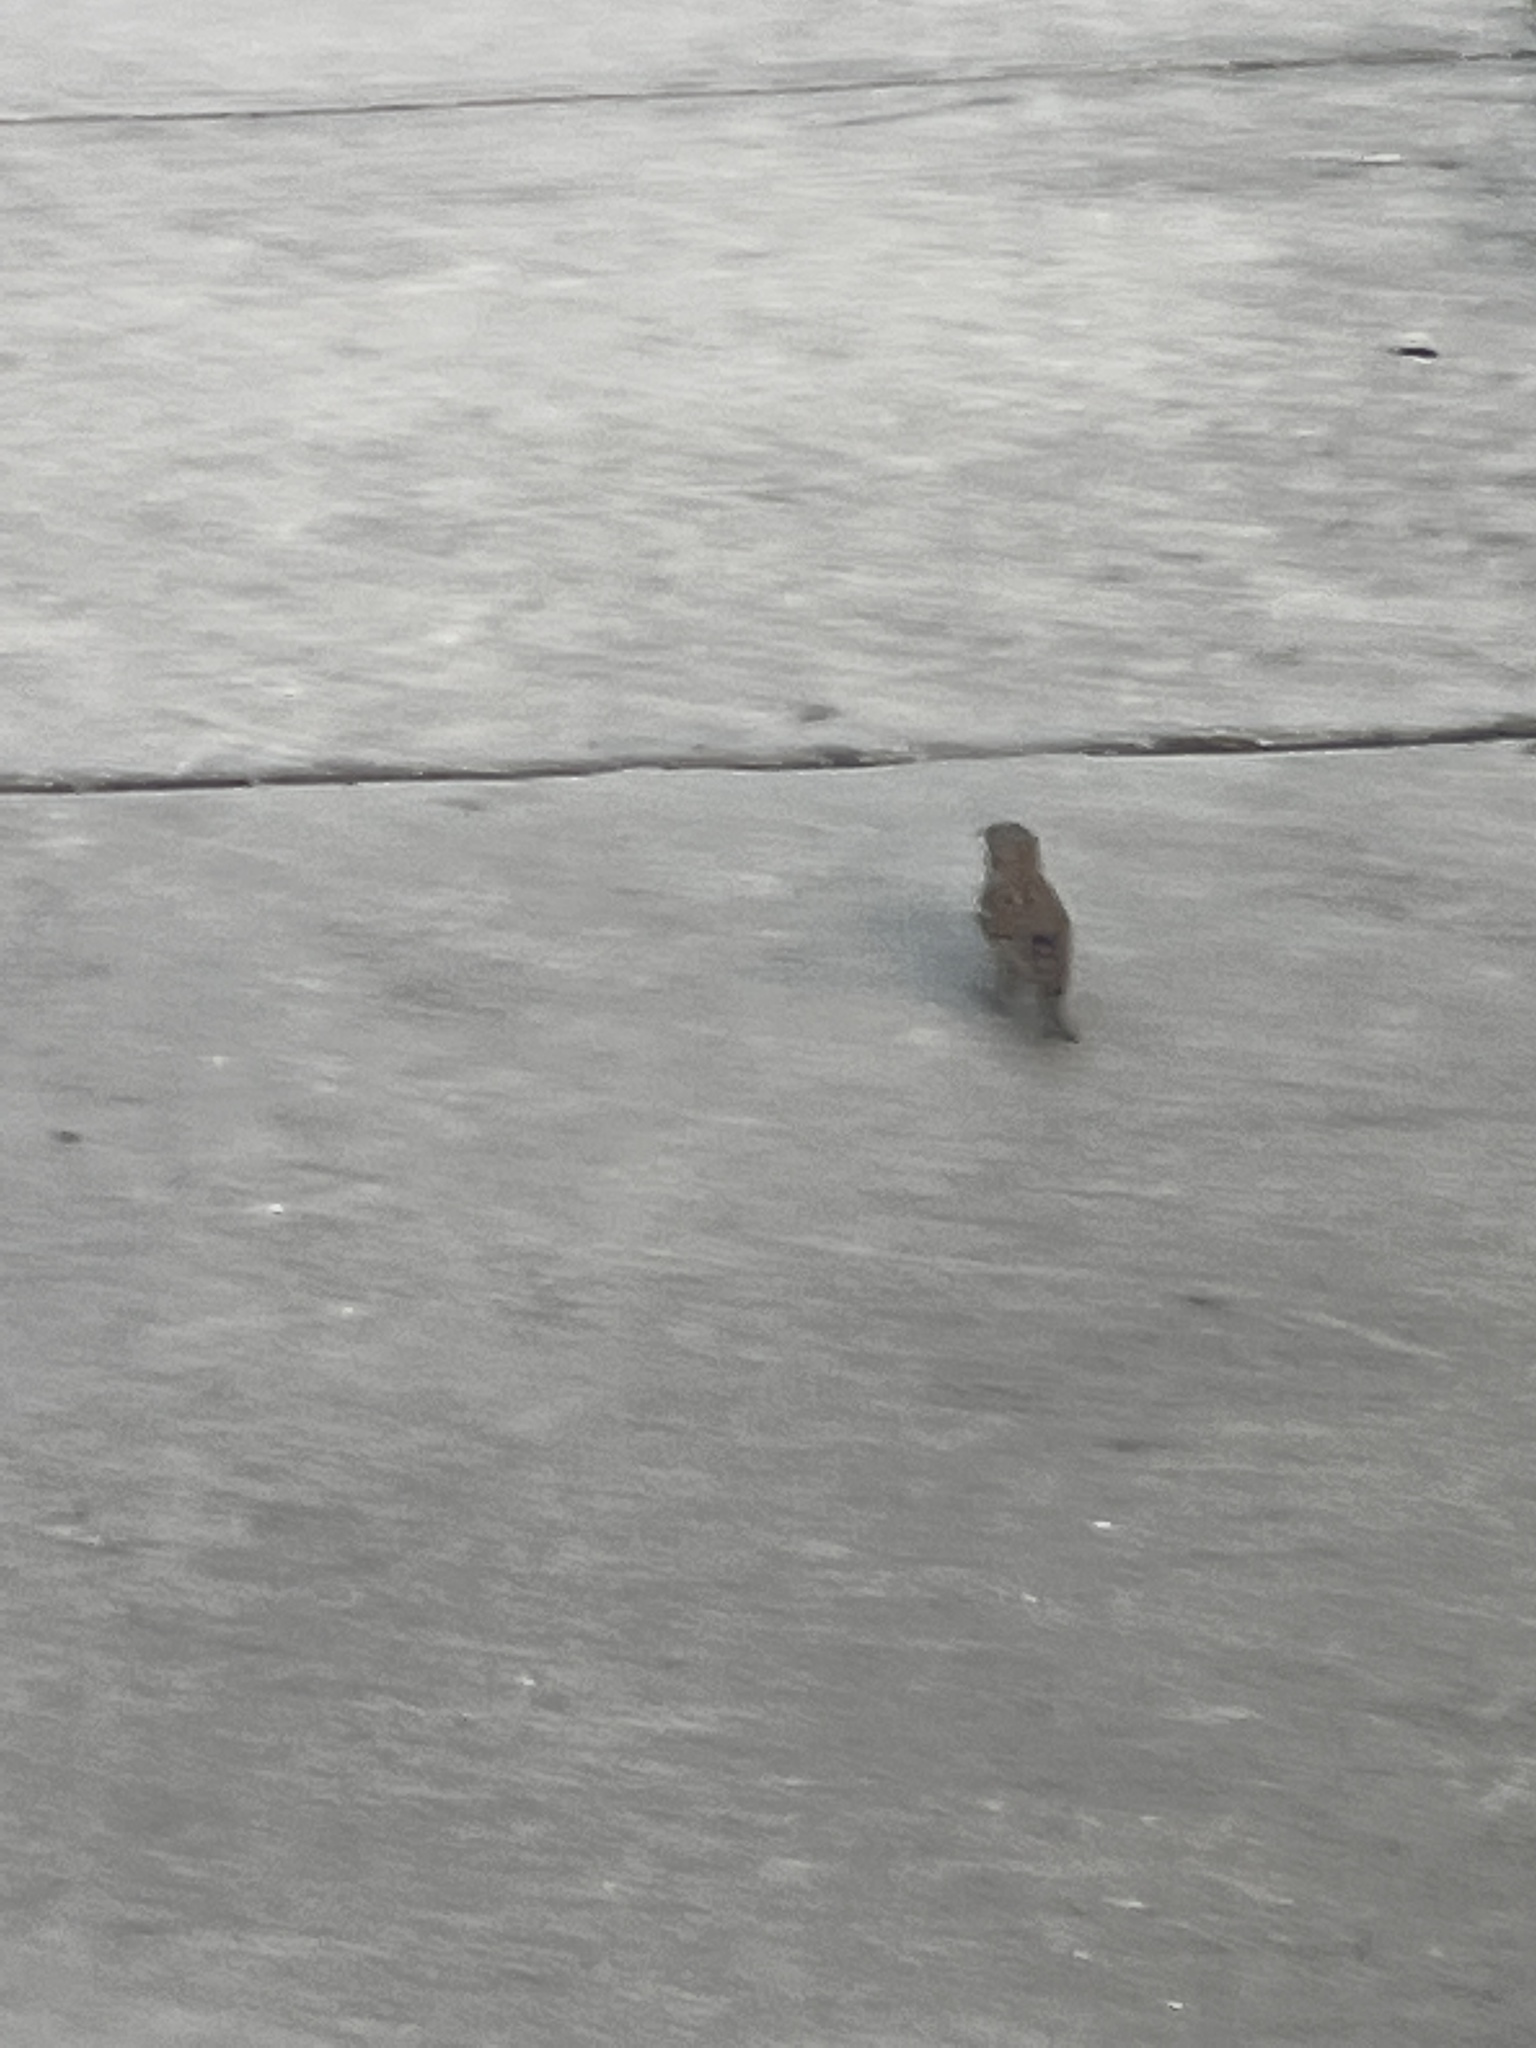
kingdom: Animalia
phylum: Chordata
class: Aves
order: Passeriformes
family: Passeridae
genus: Passer
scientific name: Passer domesticus
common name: House sparrow
